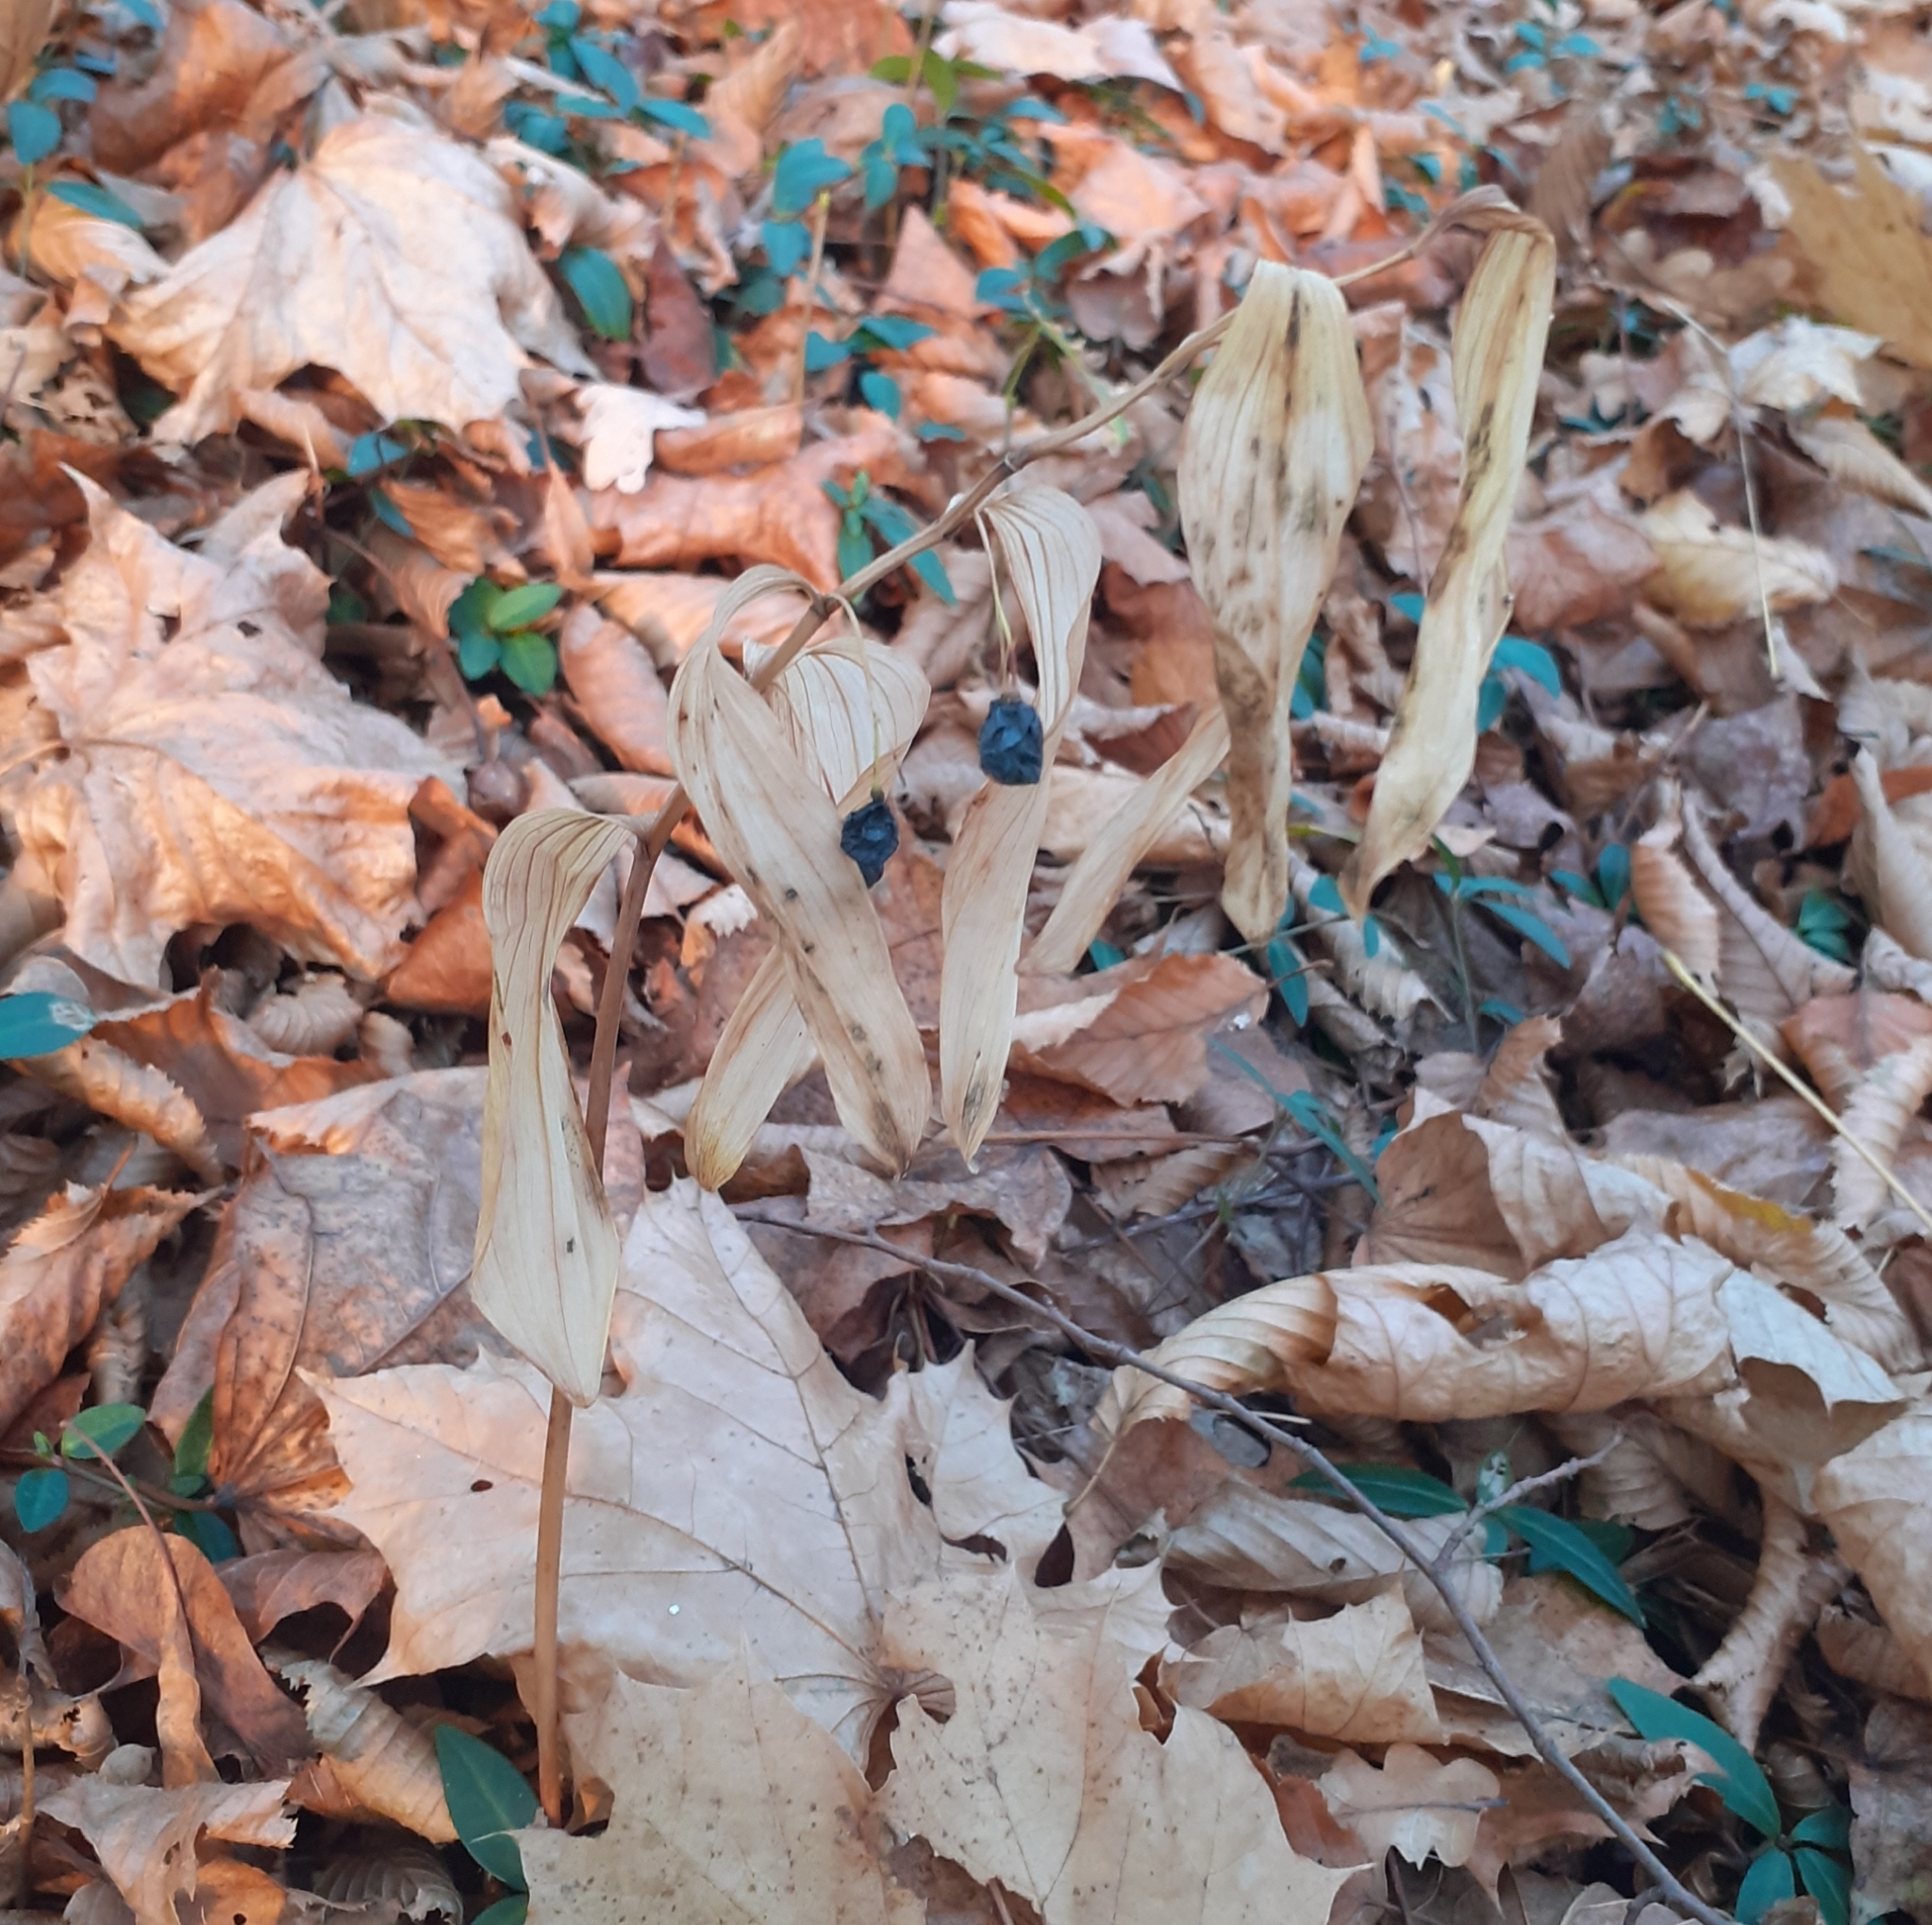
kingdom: Plantae
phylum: Tracheophyta
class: Liliopsida
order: Asparagales
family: Asparagaceae
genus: Polygonatum
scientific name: Polygonatum multiflorum
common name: Solomon's-seal
